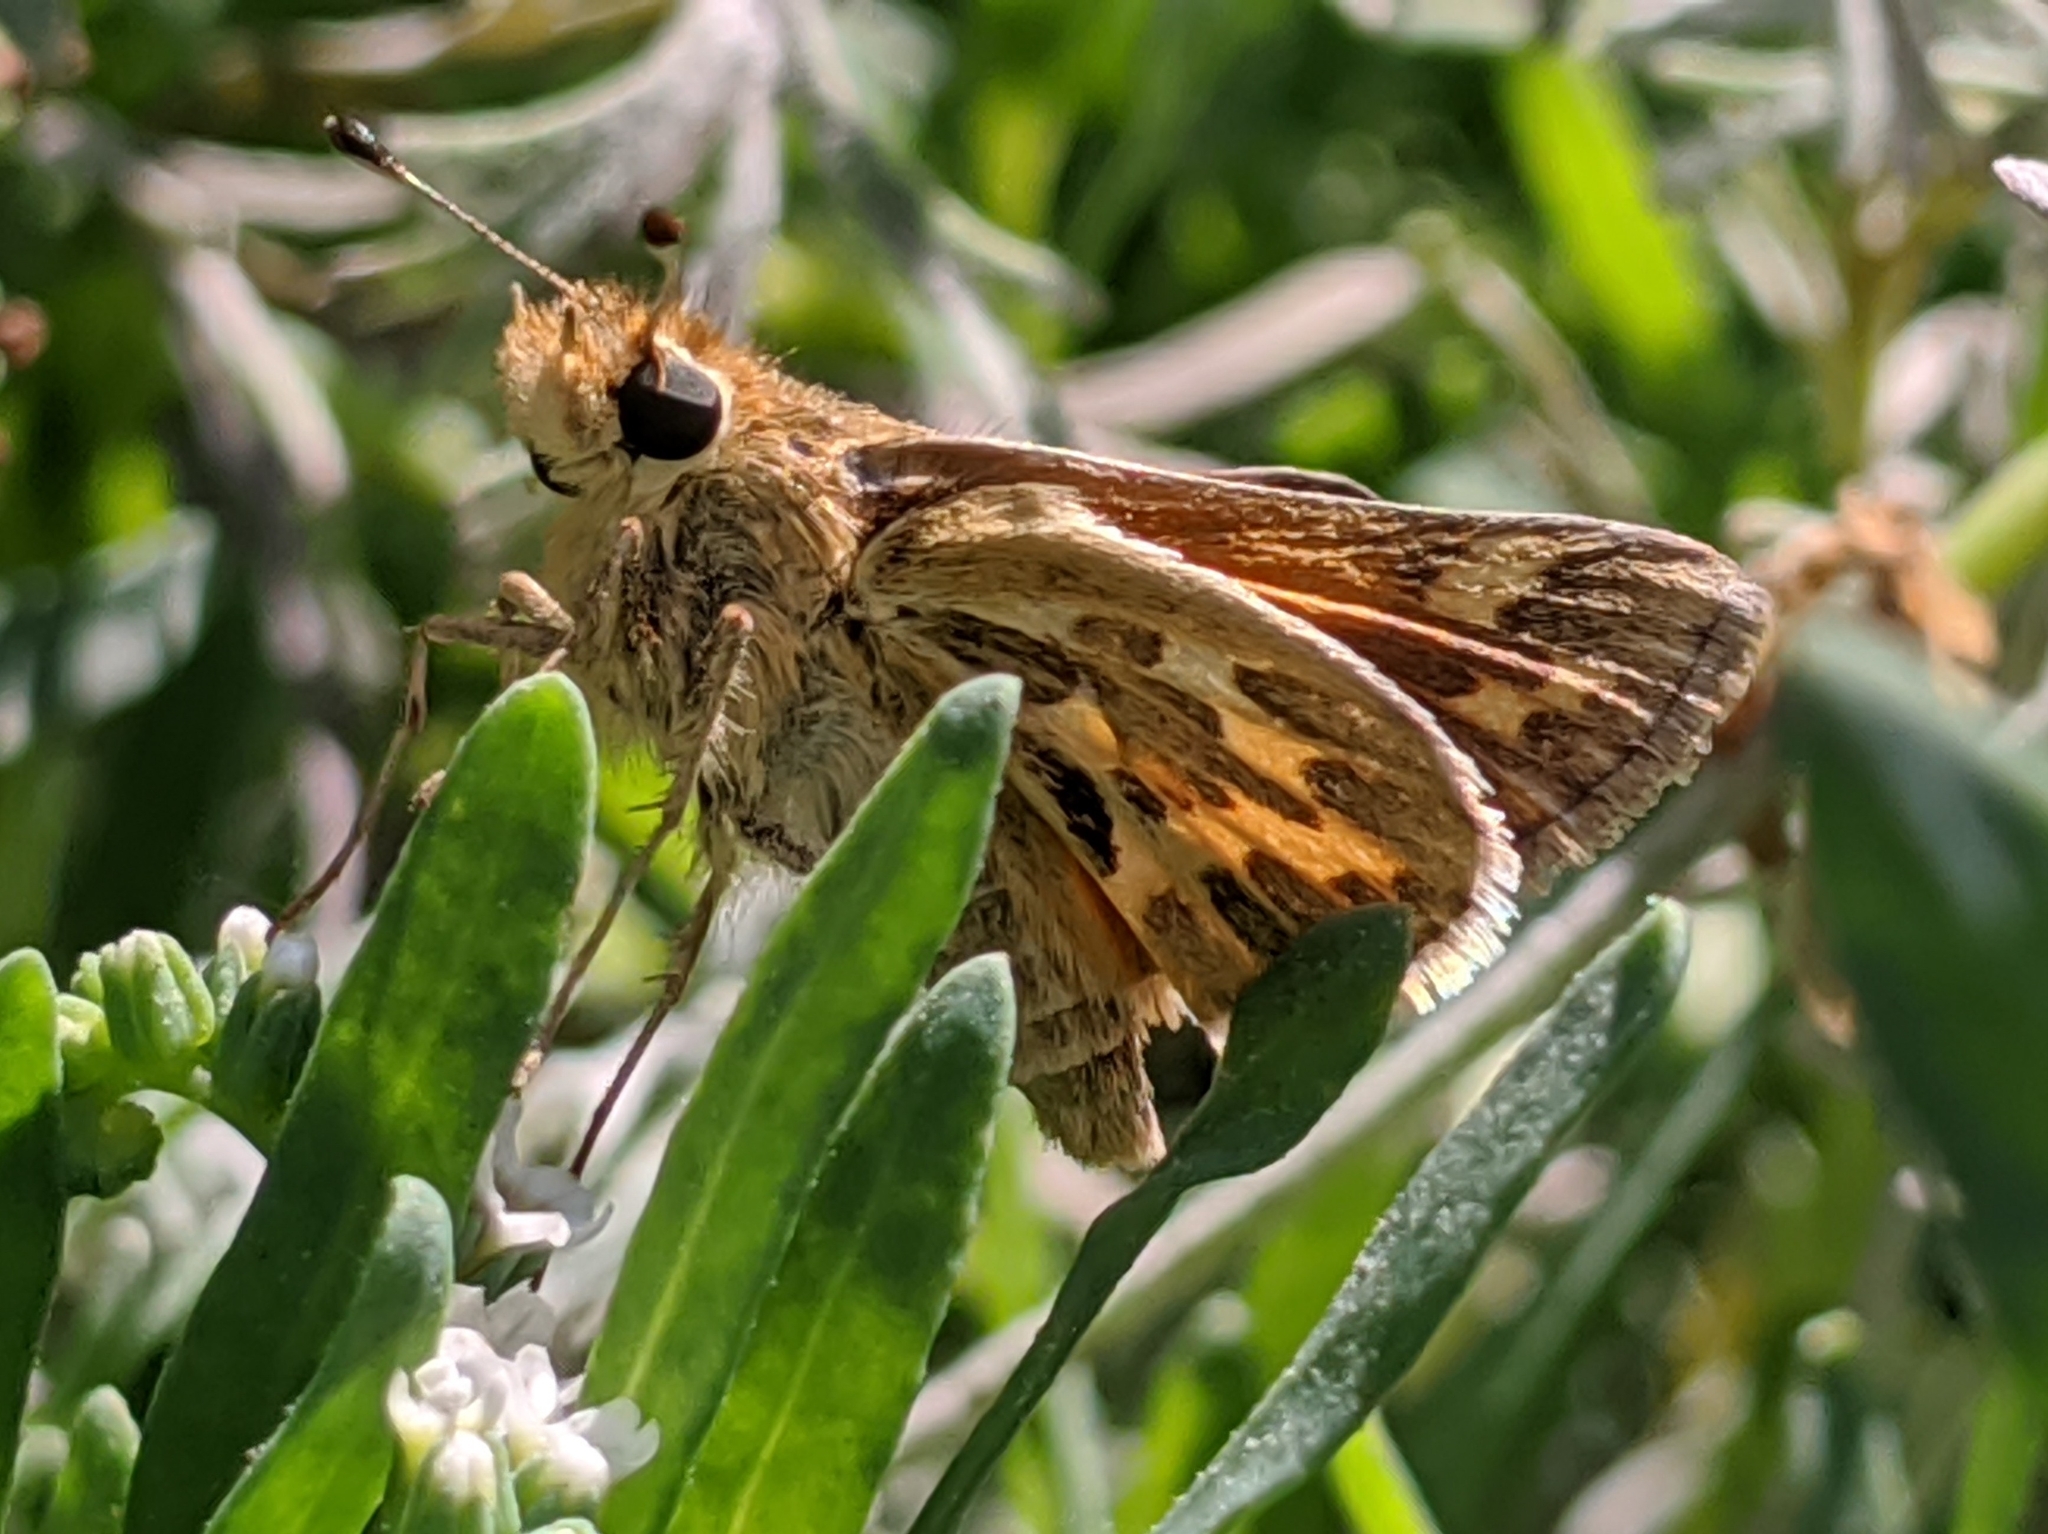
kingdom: Animalia
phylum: Arthropoda
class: Insecta
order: Lepidoptera
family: Hesperiidae
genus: Polites
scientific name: Polites sabuleti
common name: Sandhill skipper
